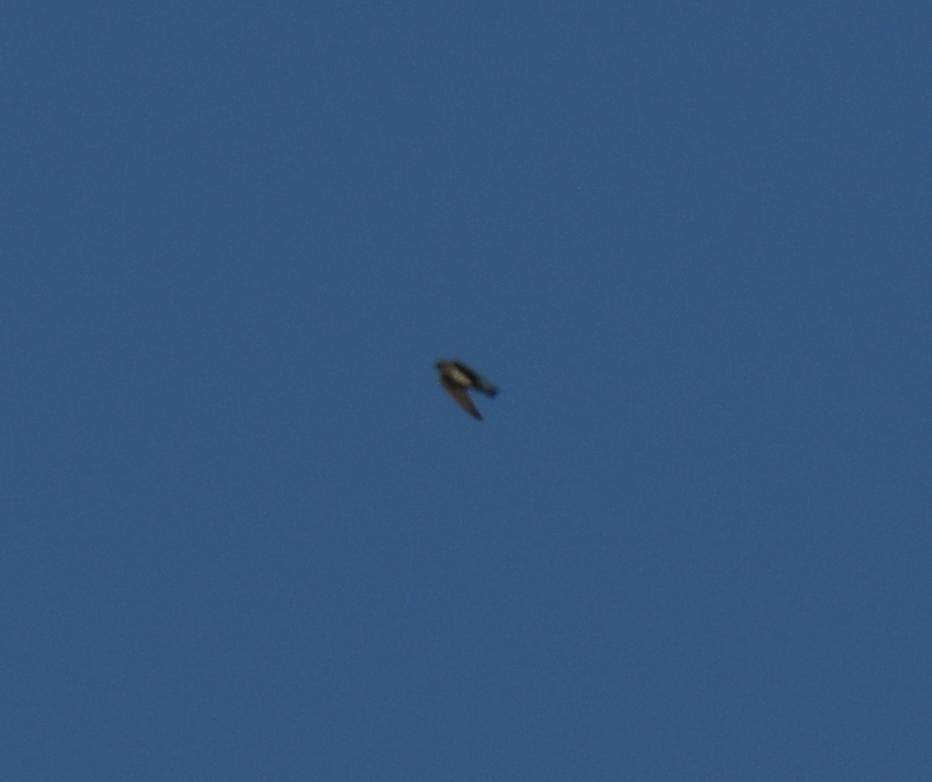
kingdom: Animalia
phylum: Chordata
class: Aves
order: Passeriformes
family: Hirundinidae
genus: Stelgidopteryx
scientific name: Stelgidopteryx serripennis
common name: Northern rough-winged swallow
